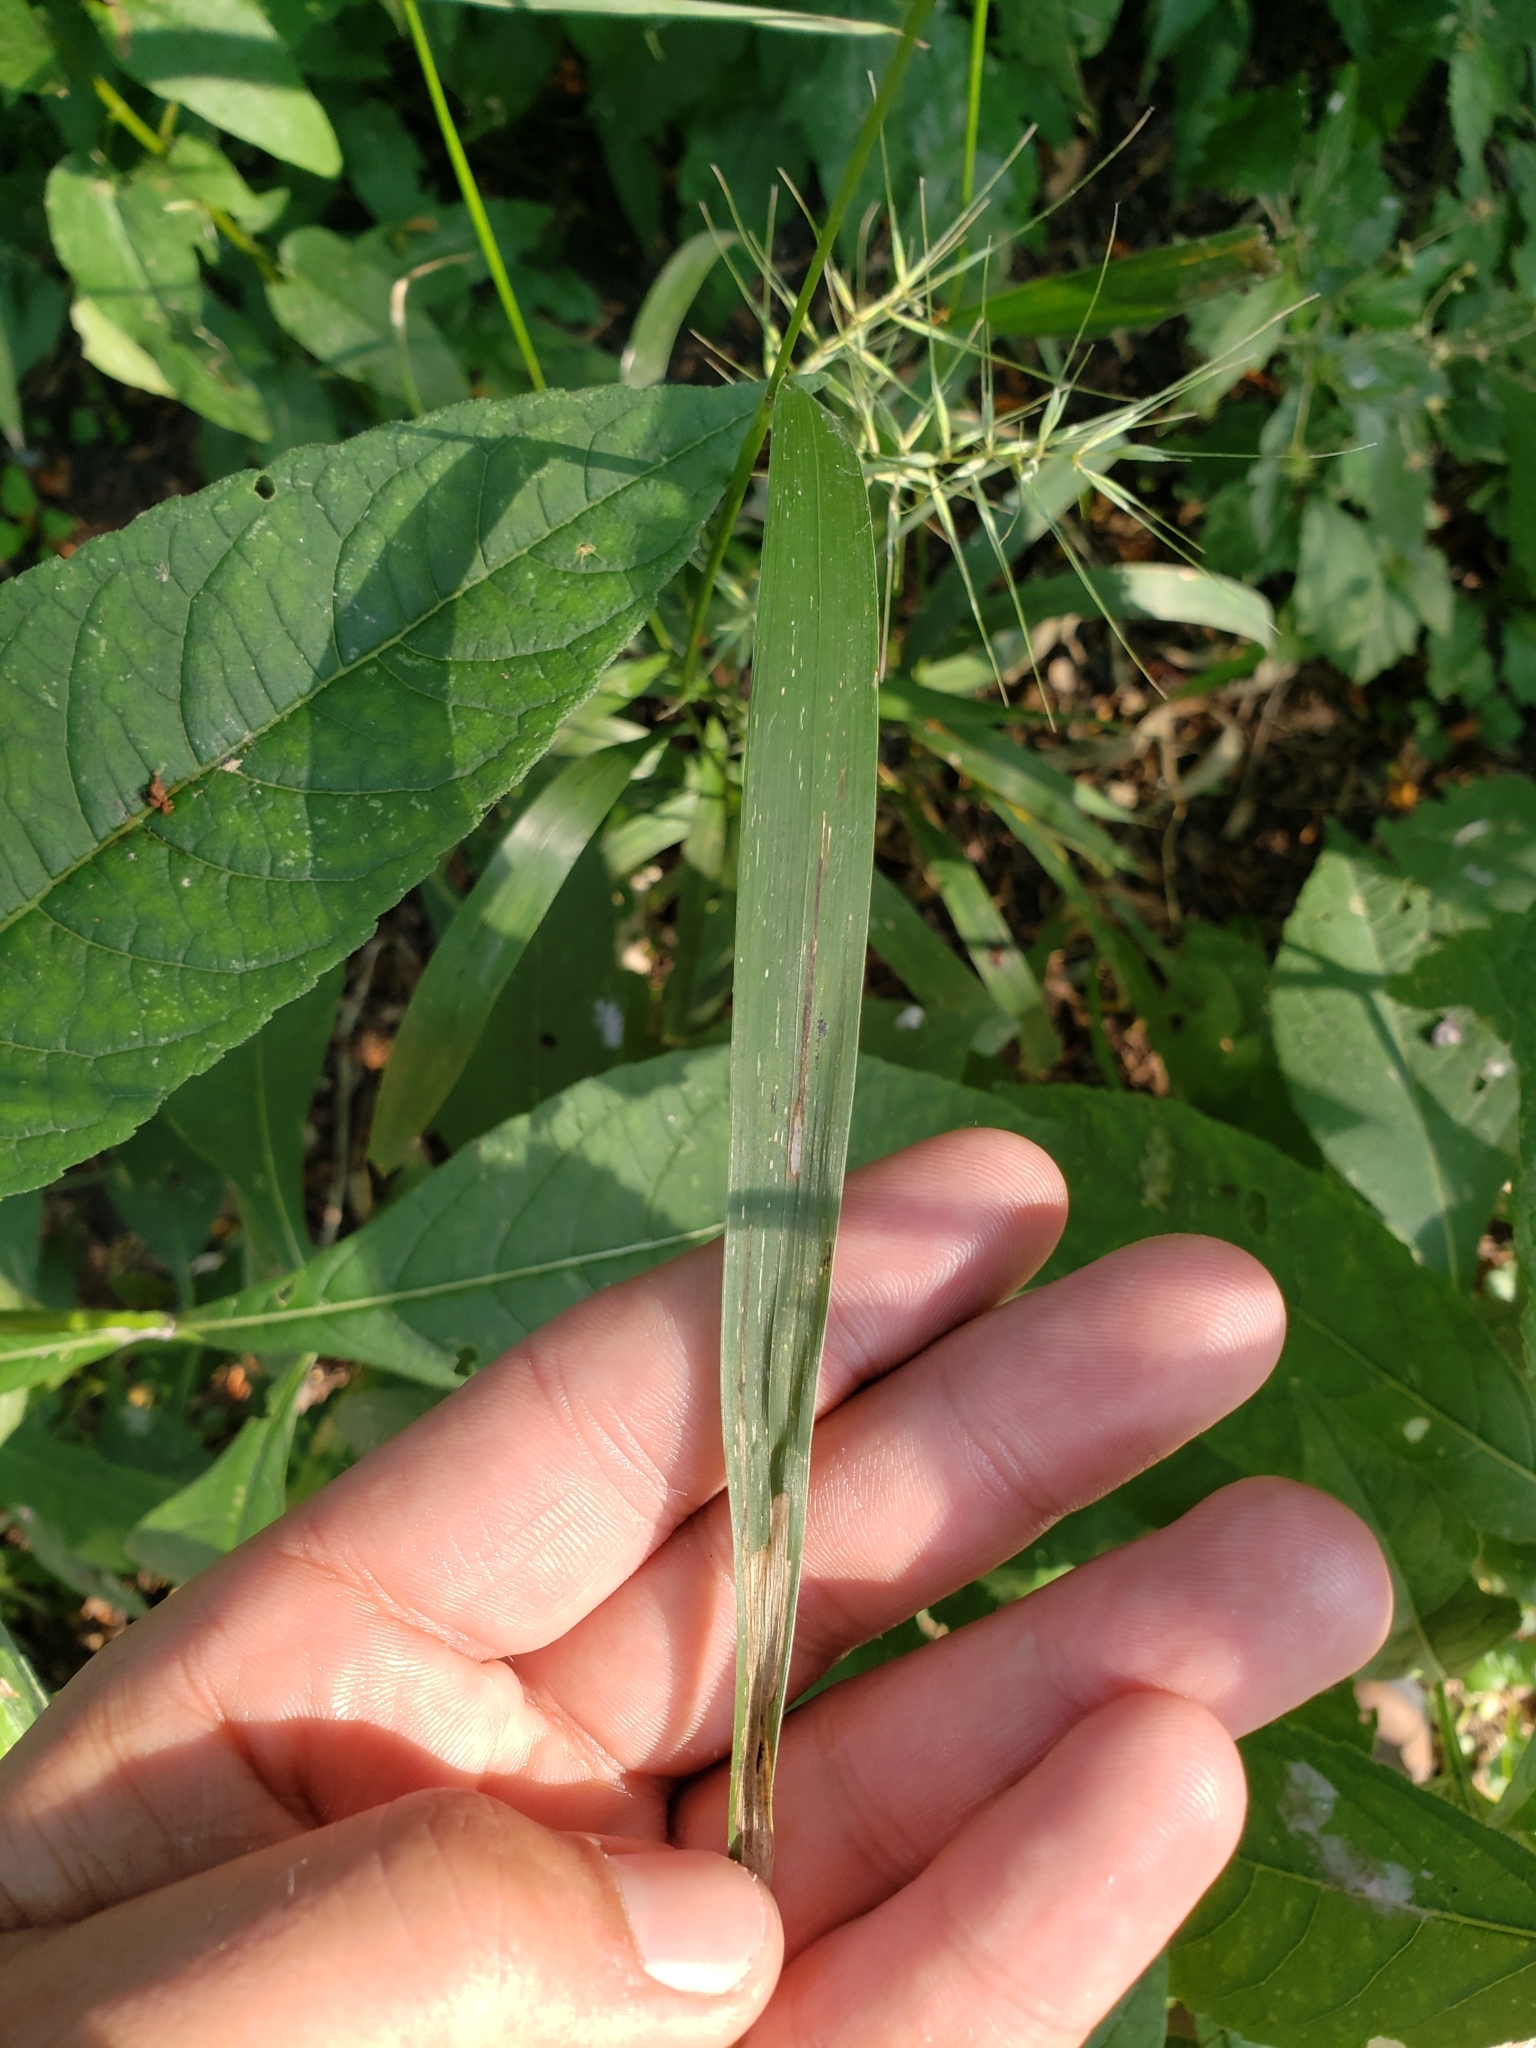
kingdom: Plantae
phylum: Tracheophyta
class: Liliopsida
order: Poales
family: Poaceae
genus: Elymus
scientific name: Elymus hystrix
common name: Bottlebrush grass
